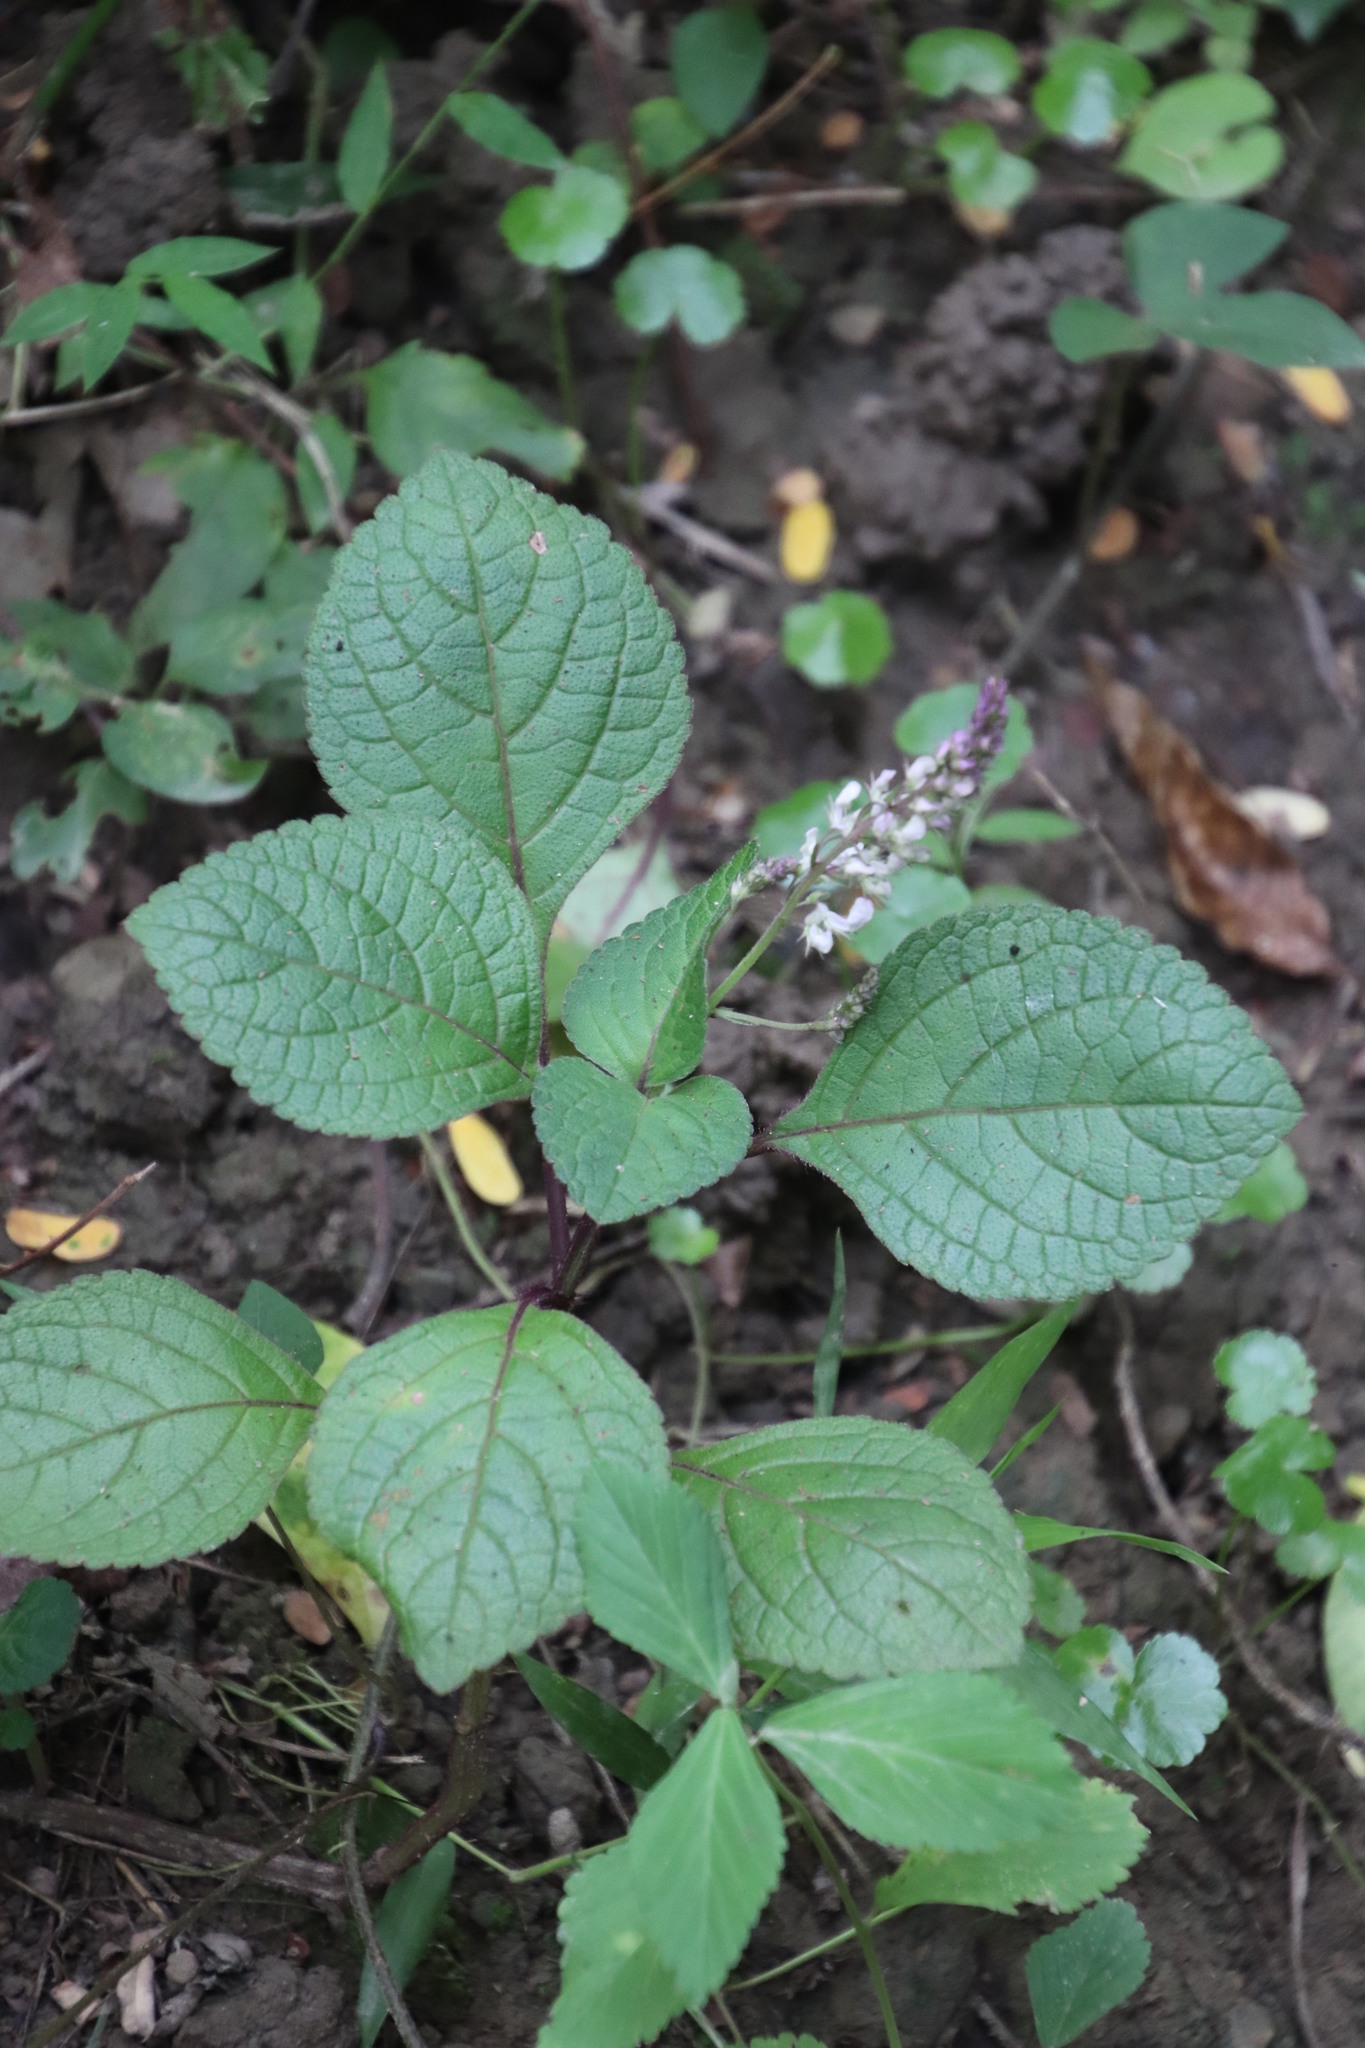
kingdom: Plantae
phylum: Tracheophyta
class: Magnoliopsida
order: Lamiales
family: Lamiaceae
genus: Plectranthus
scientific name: Plectranthus ciliatus
